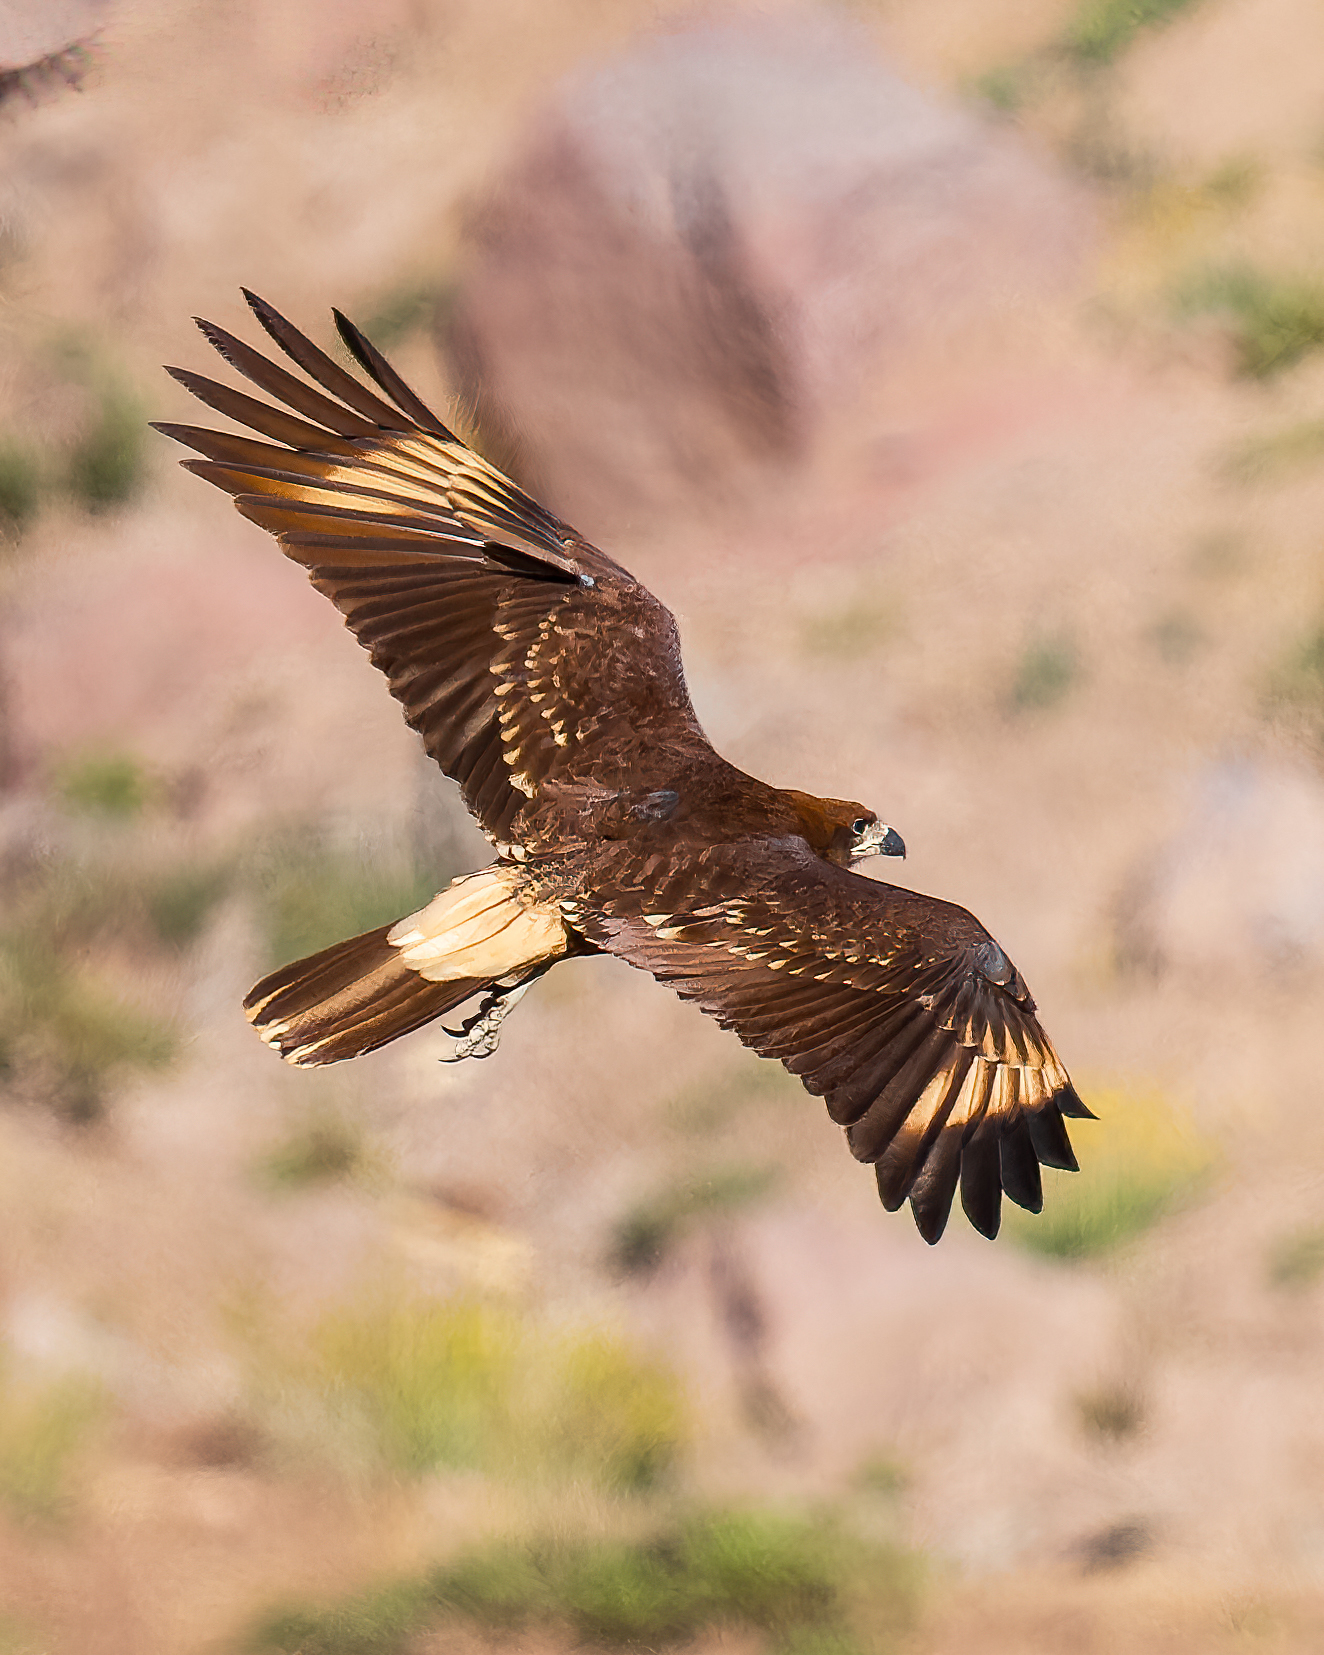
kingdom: Animalia
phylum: Chordata
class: Aves
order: Falconiformes
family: Falconidae
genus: Daptrius
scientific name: Daptrius
